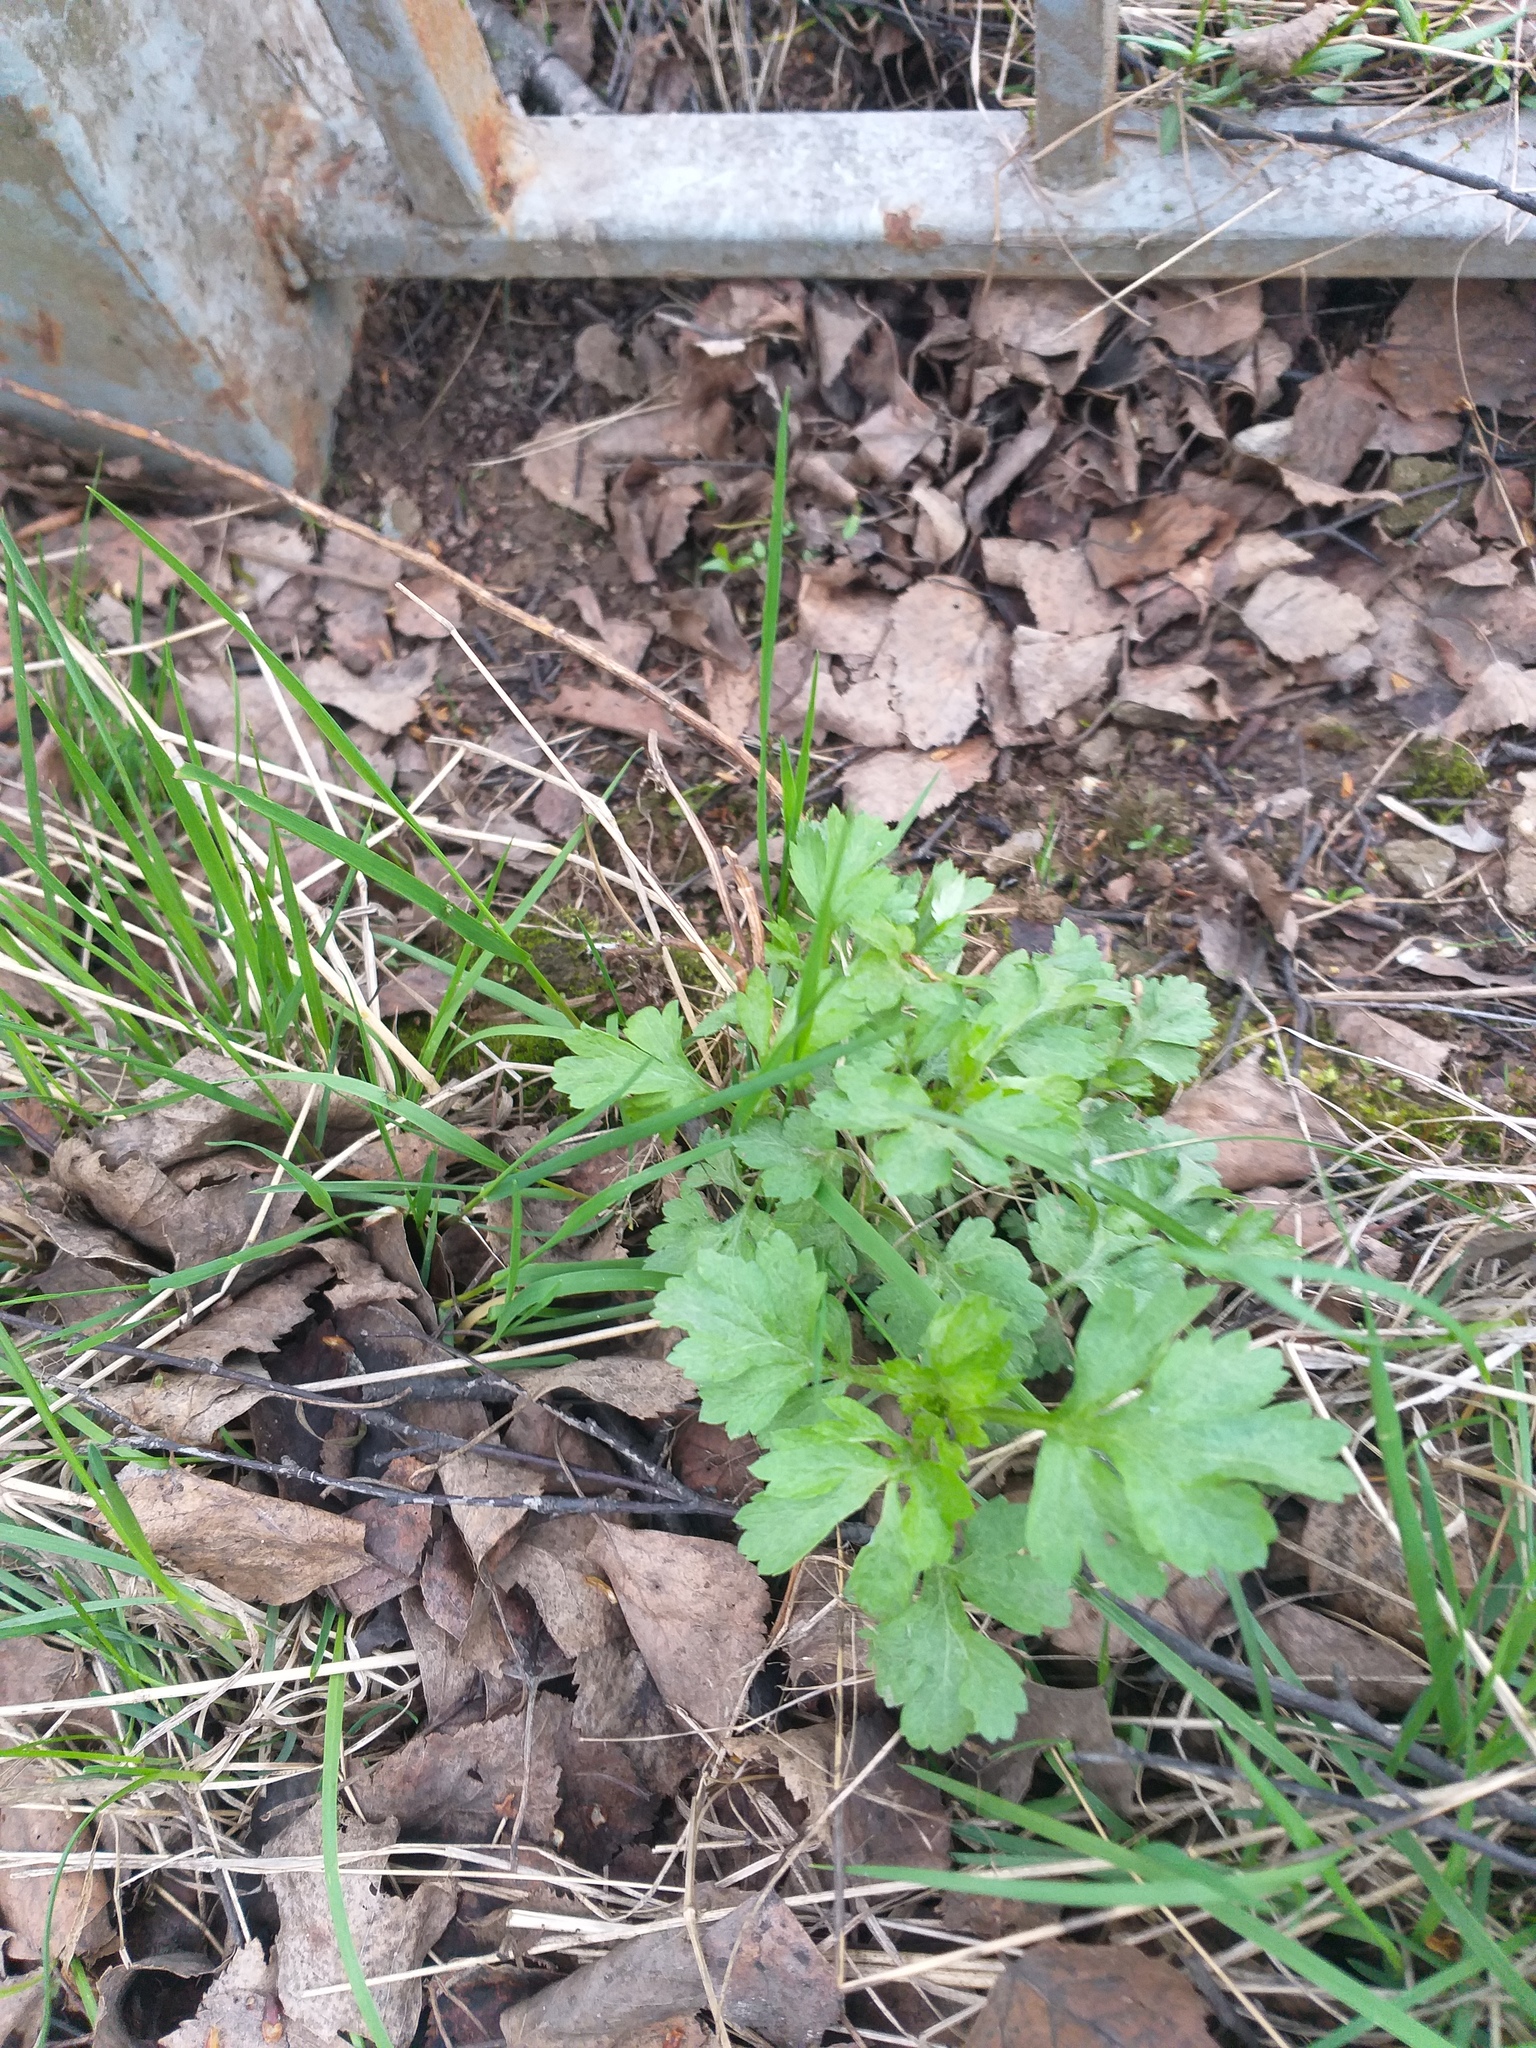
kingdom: Plantae
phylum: Tracheophyta
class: Magnoliopsida
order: Asterales
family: Asteraceae
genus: Artemisia
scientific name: Artemisia vulgaris
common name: Mugwort
